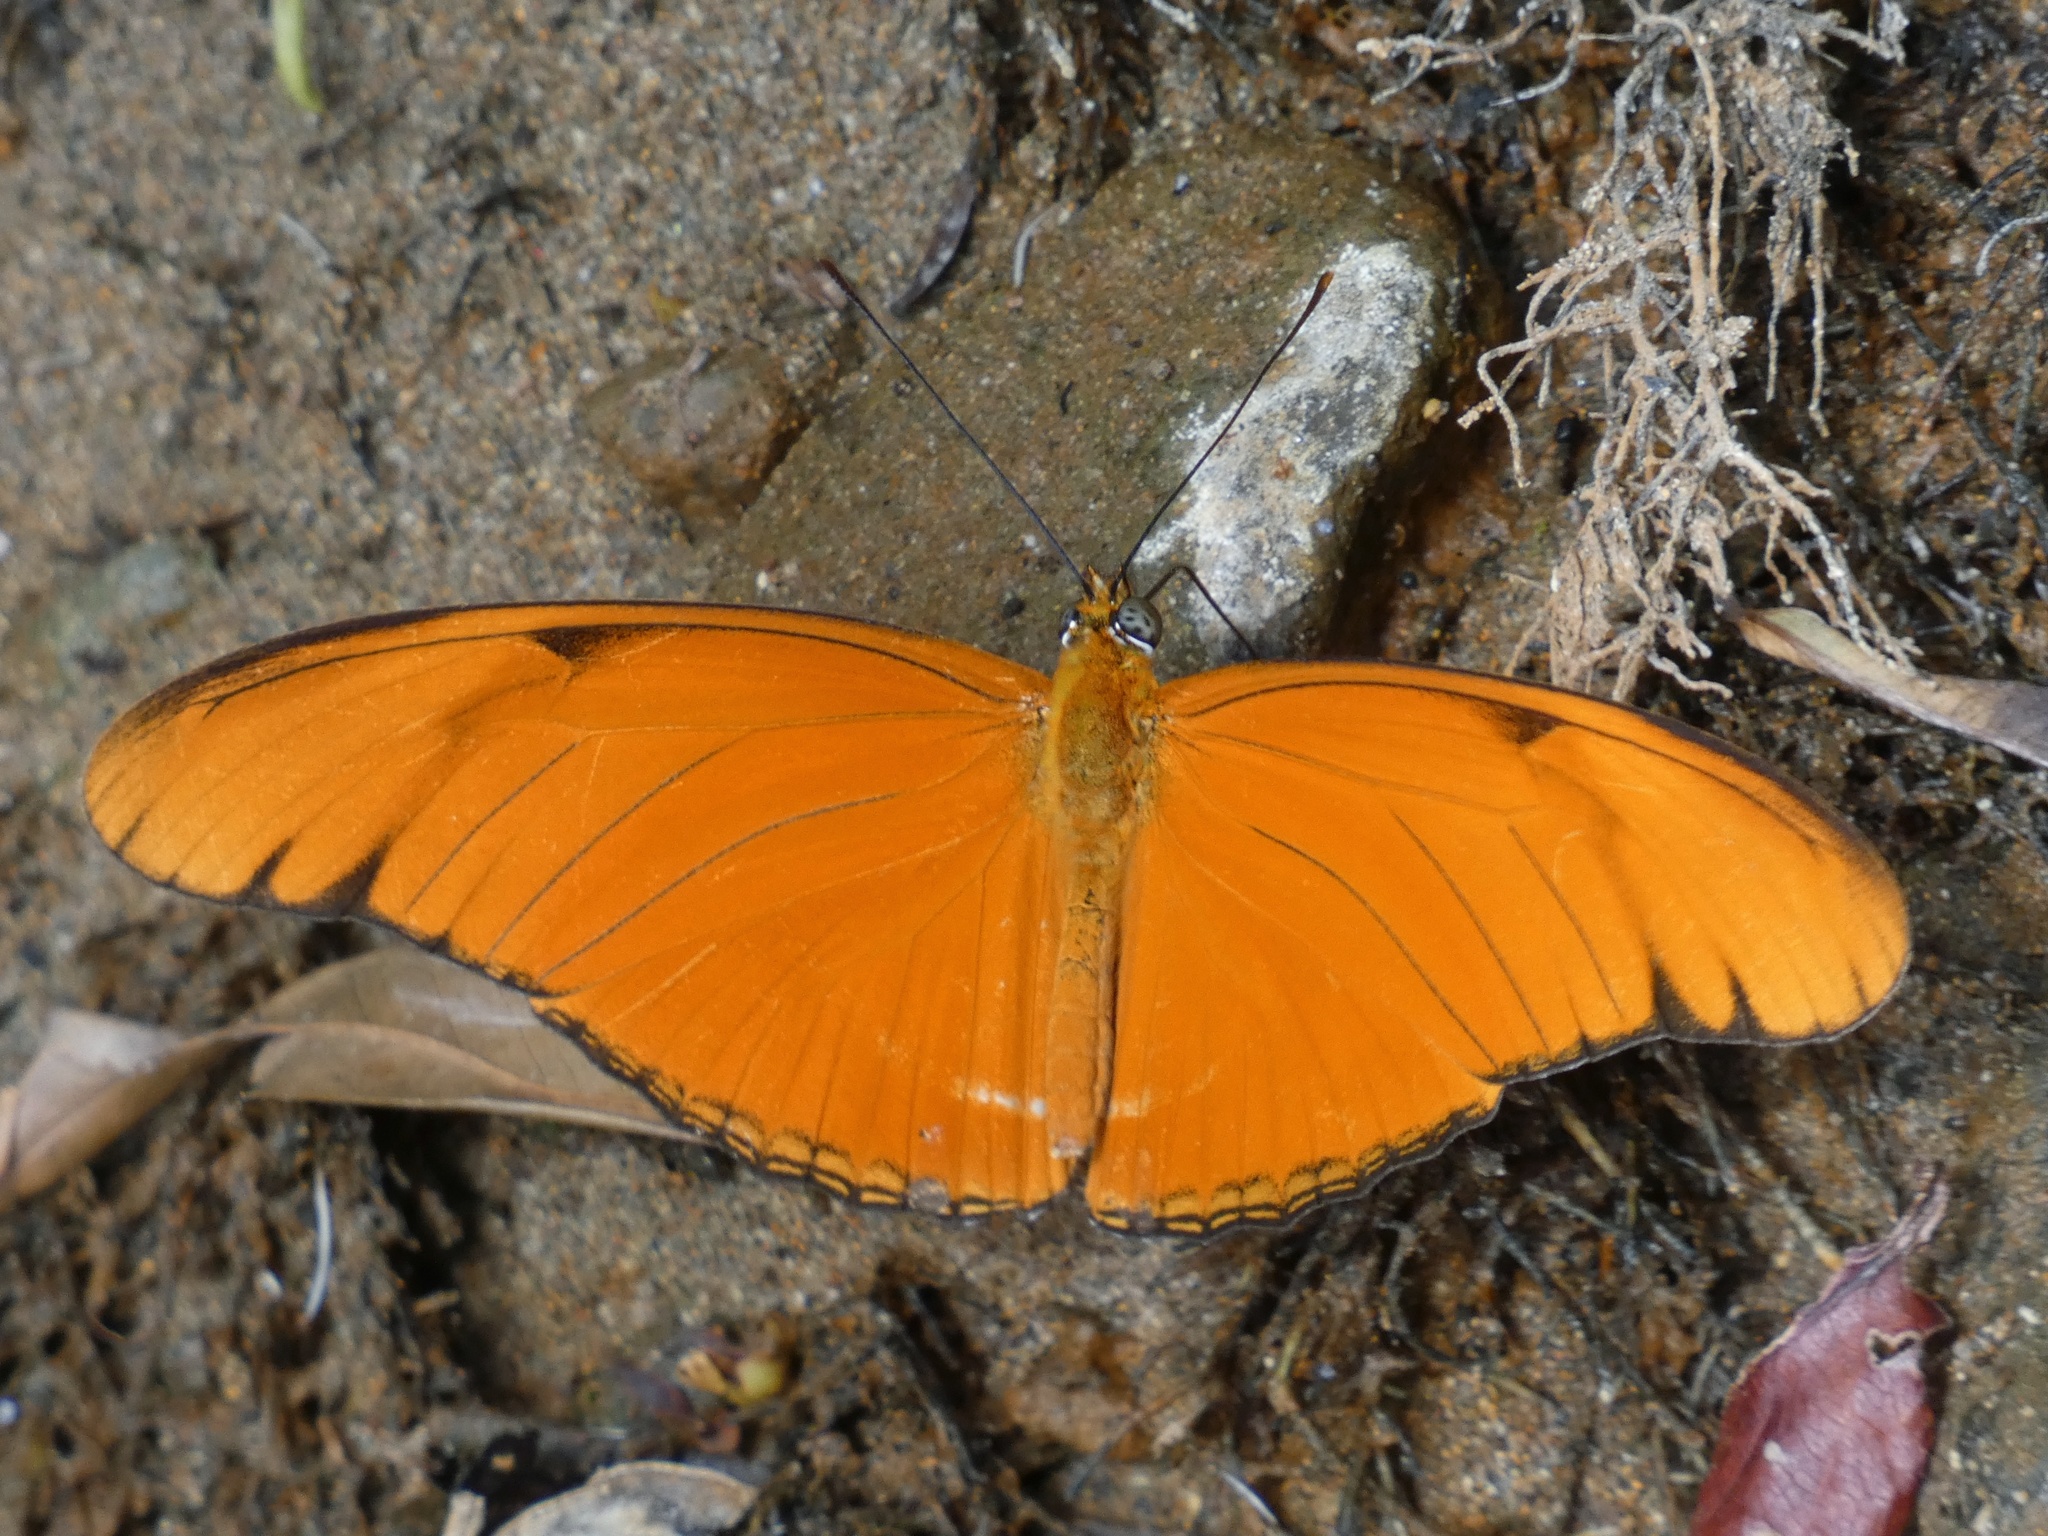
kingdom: Animalia
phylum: Arthropoda
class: Insecta
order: Lepidoptera
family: Nymphalidae
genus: Dryas
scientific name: Dryas iulia
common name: Flambeau
